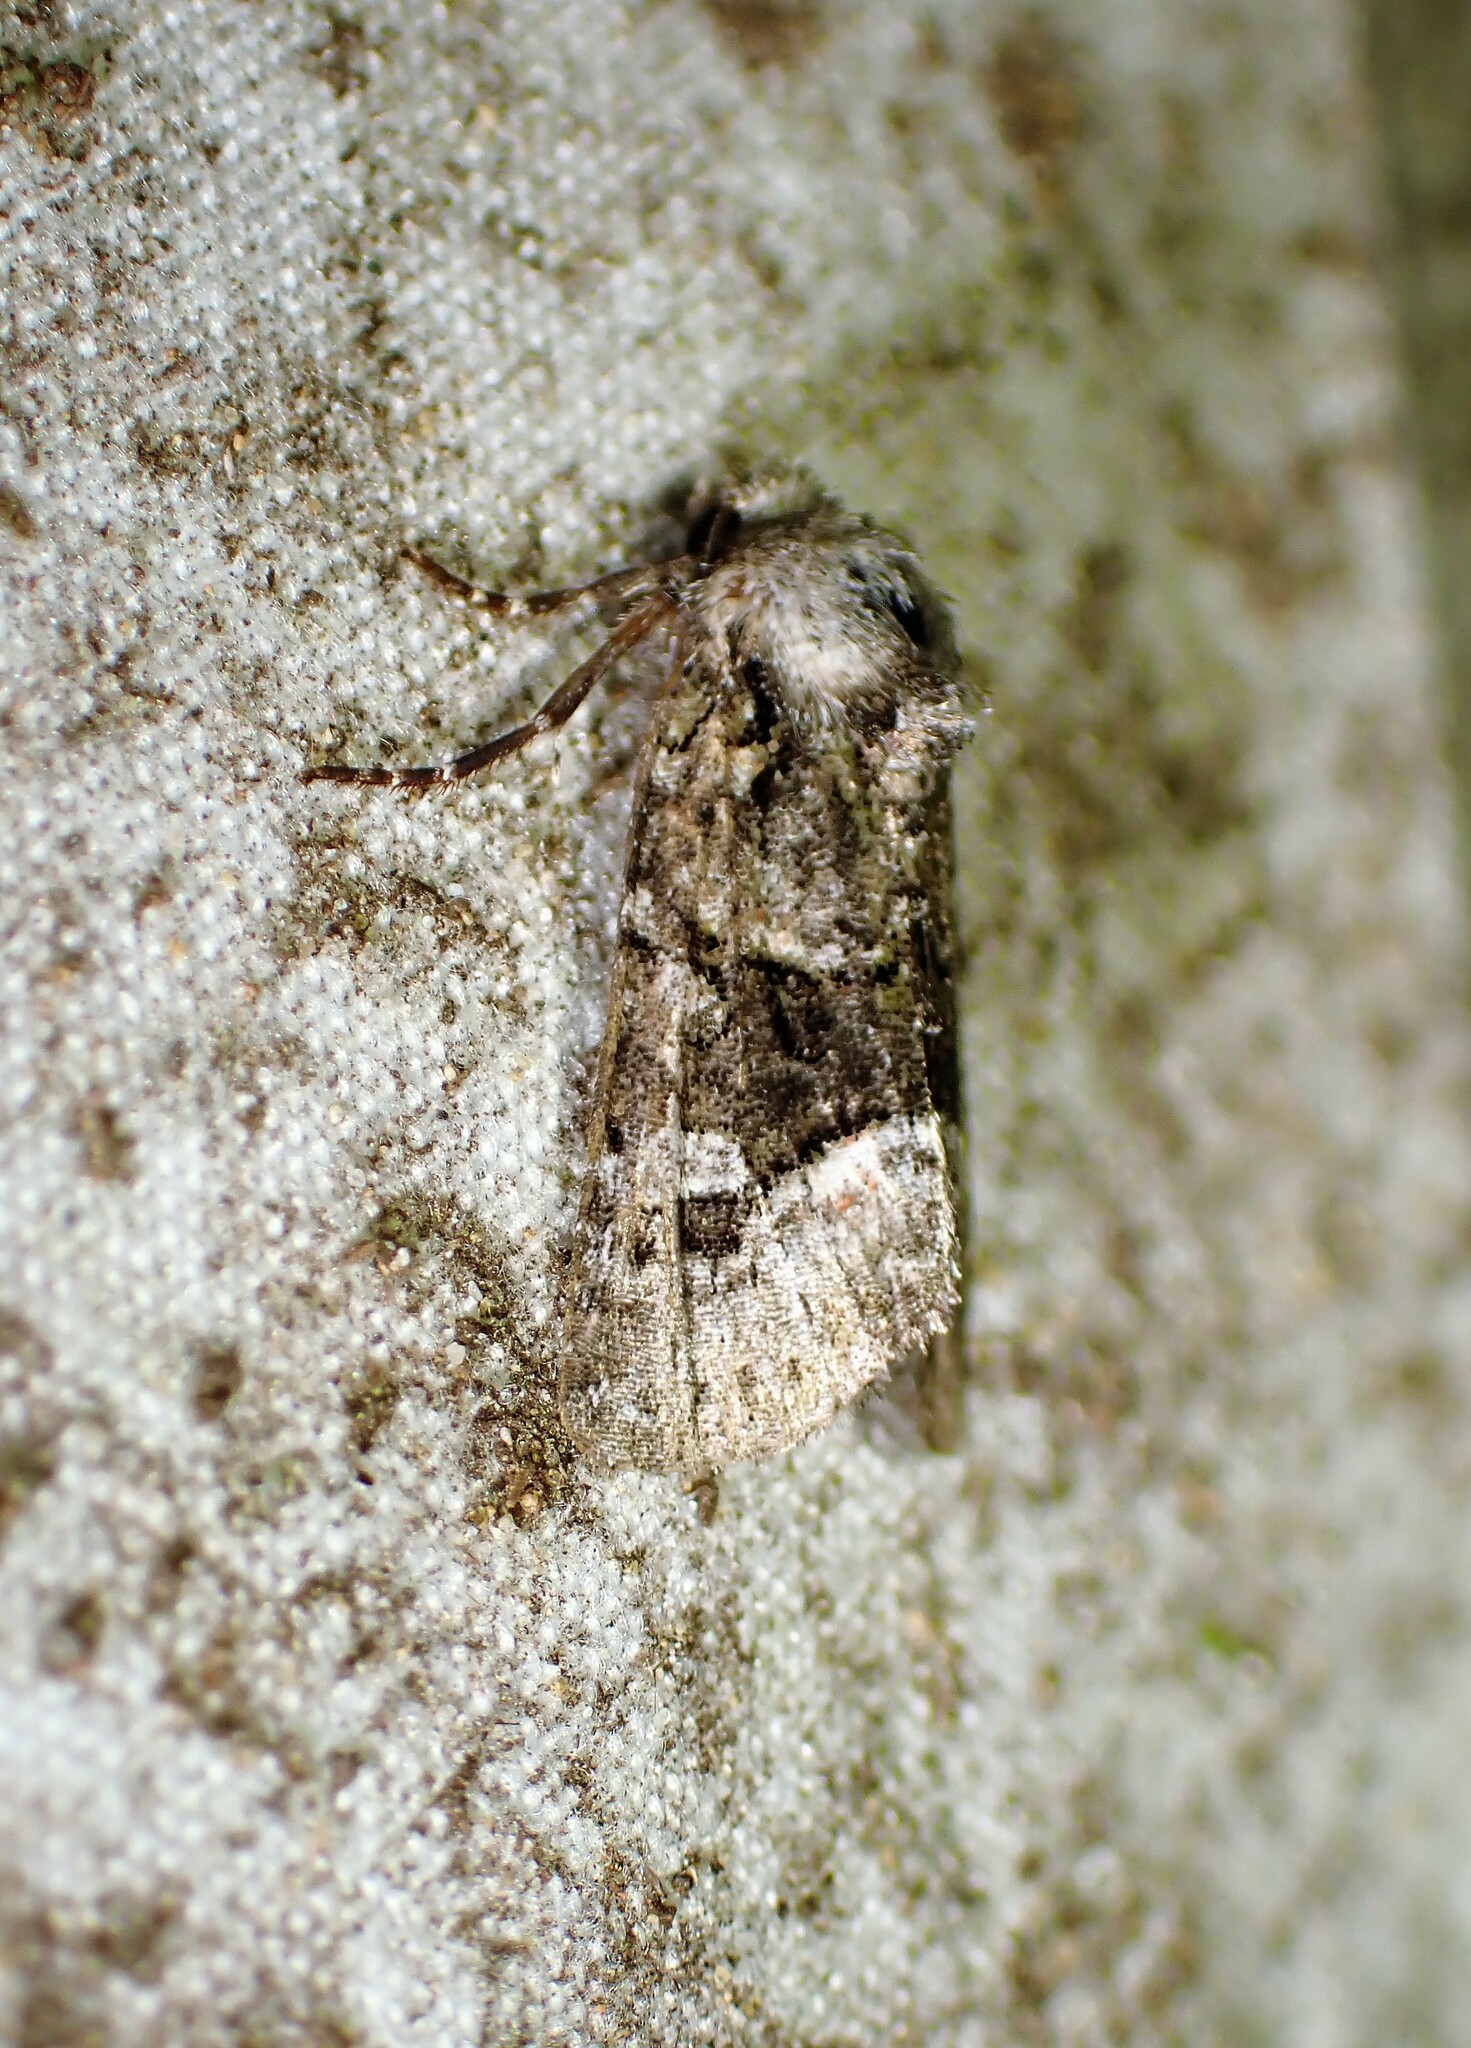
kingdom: Animalia
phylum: Arthropoda
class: Insecta
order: Lepidoptera
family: Noctuidae
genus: Lacinipolia
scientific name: Lacinipolia olivacea
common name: Olive arches moth
